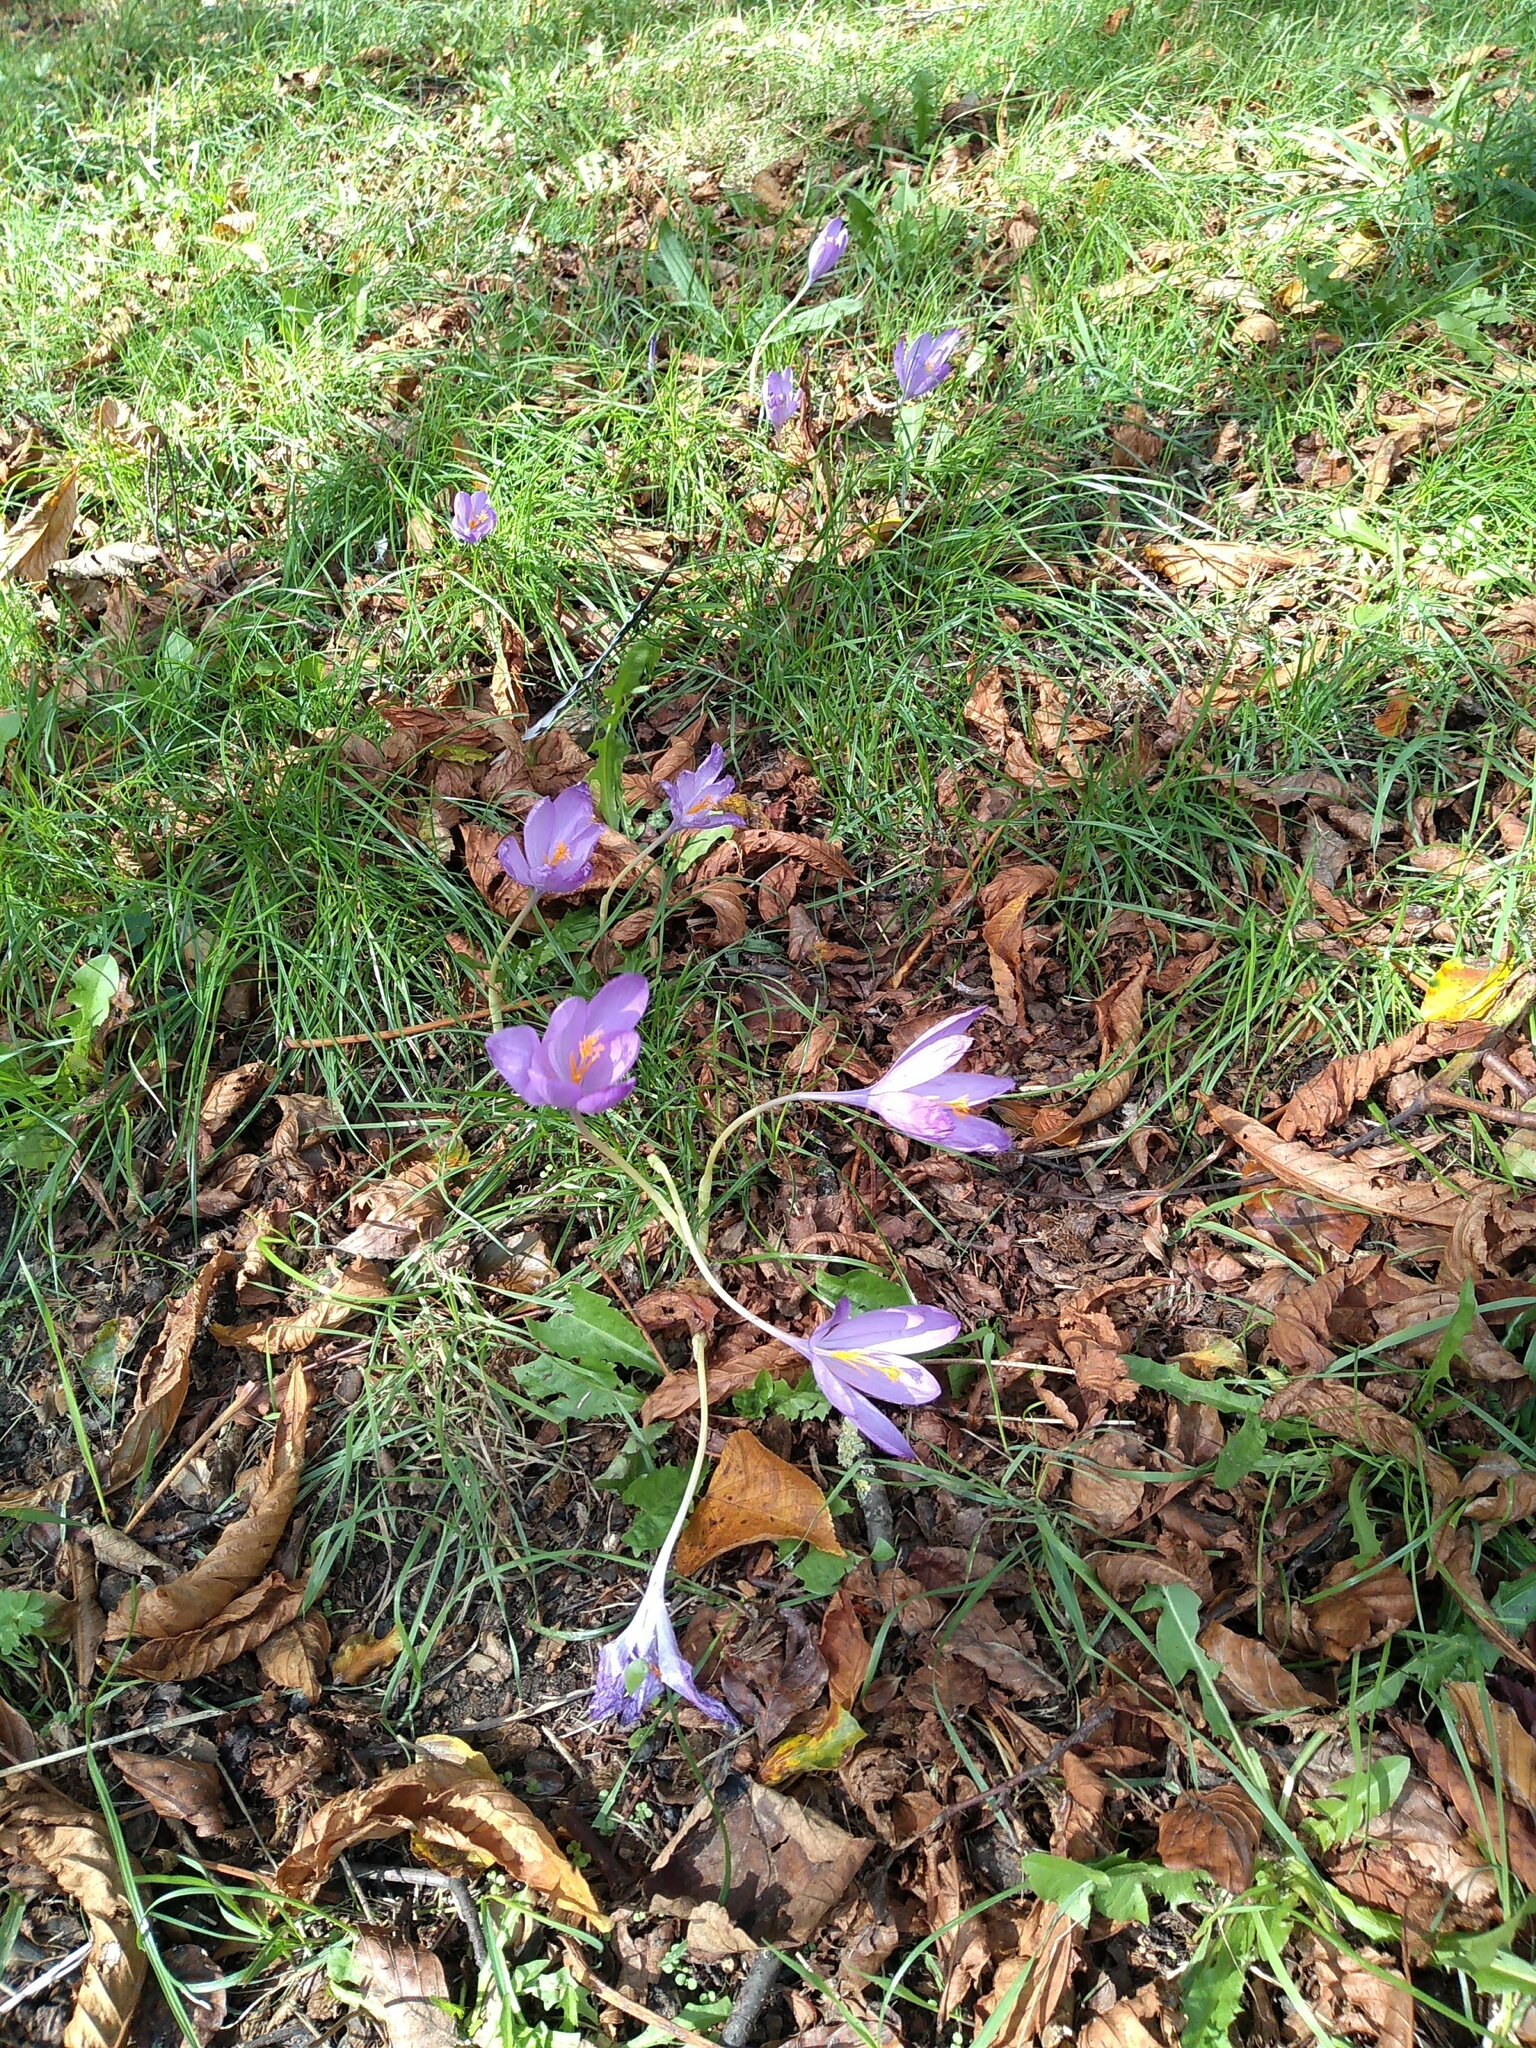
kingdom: Plantae
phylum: Tracheophyta
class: Liliopsida
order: Asparagales
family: Iridaceae
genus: Crocus
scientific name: Crocus nudiflorus
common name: Autumn crocus
